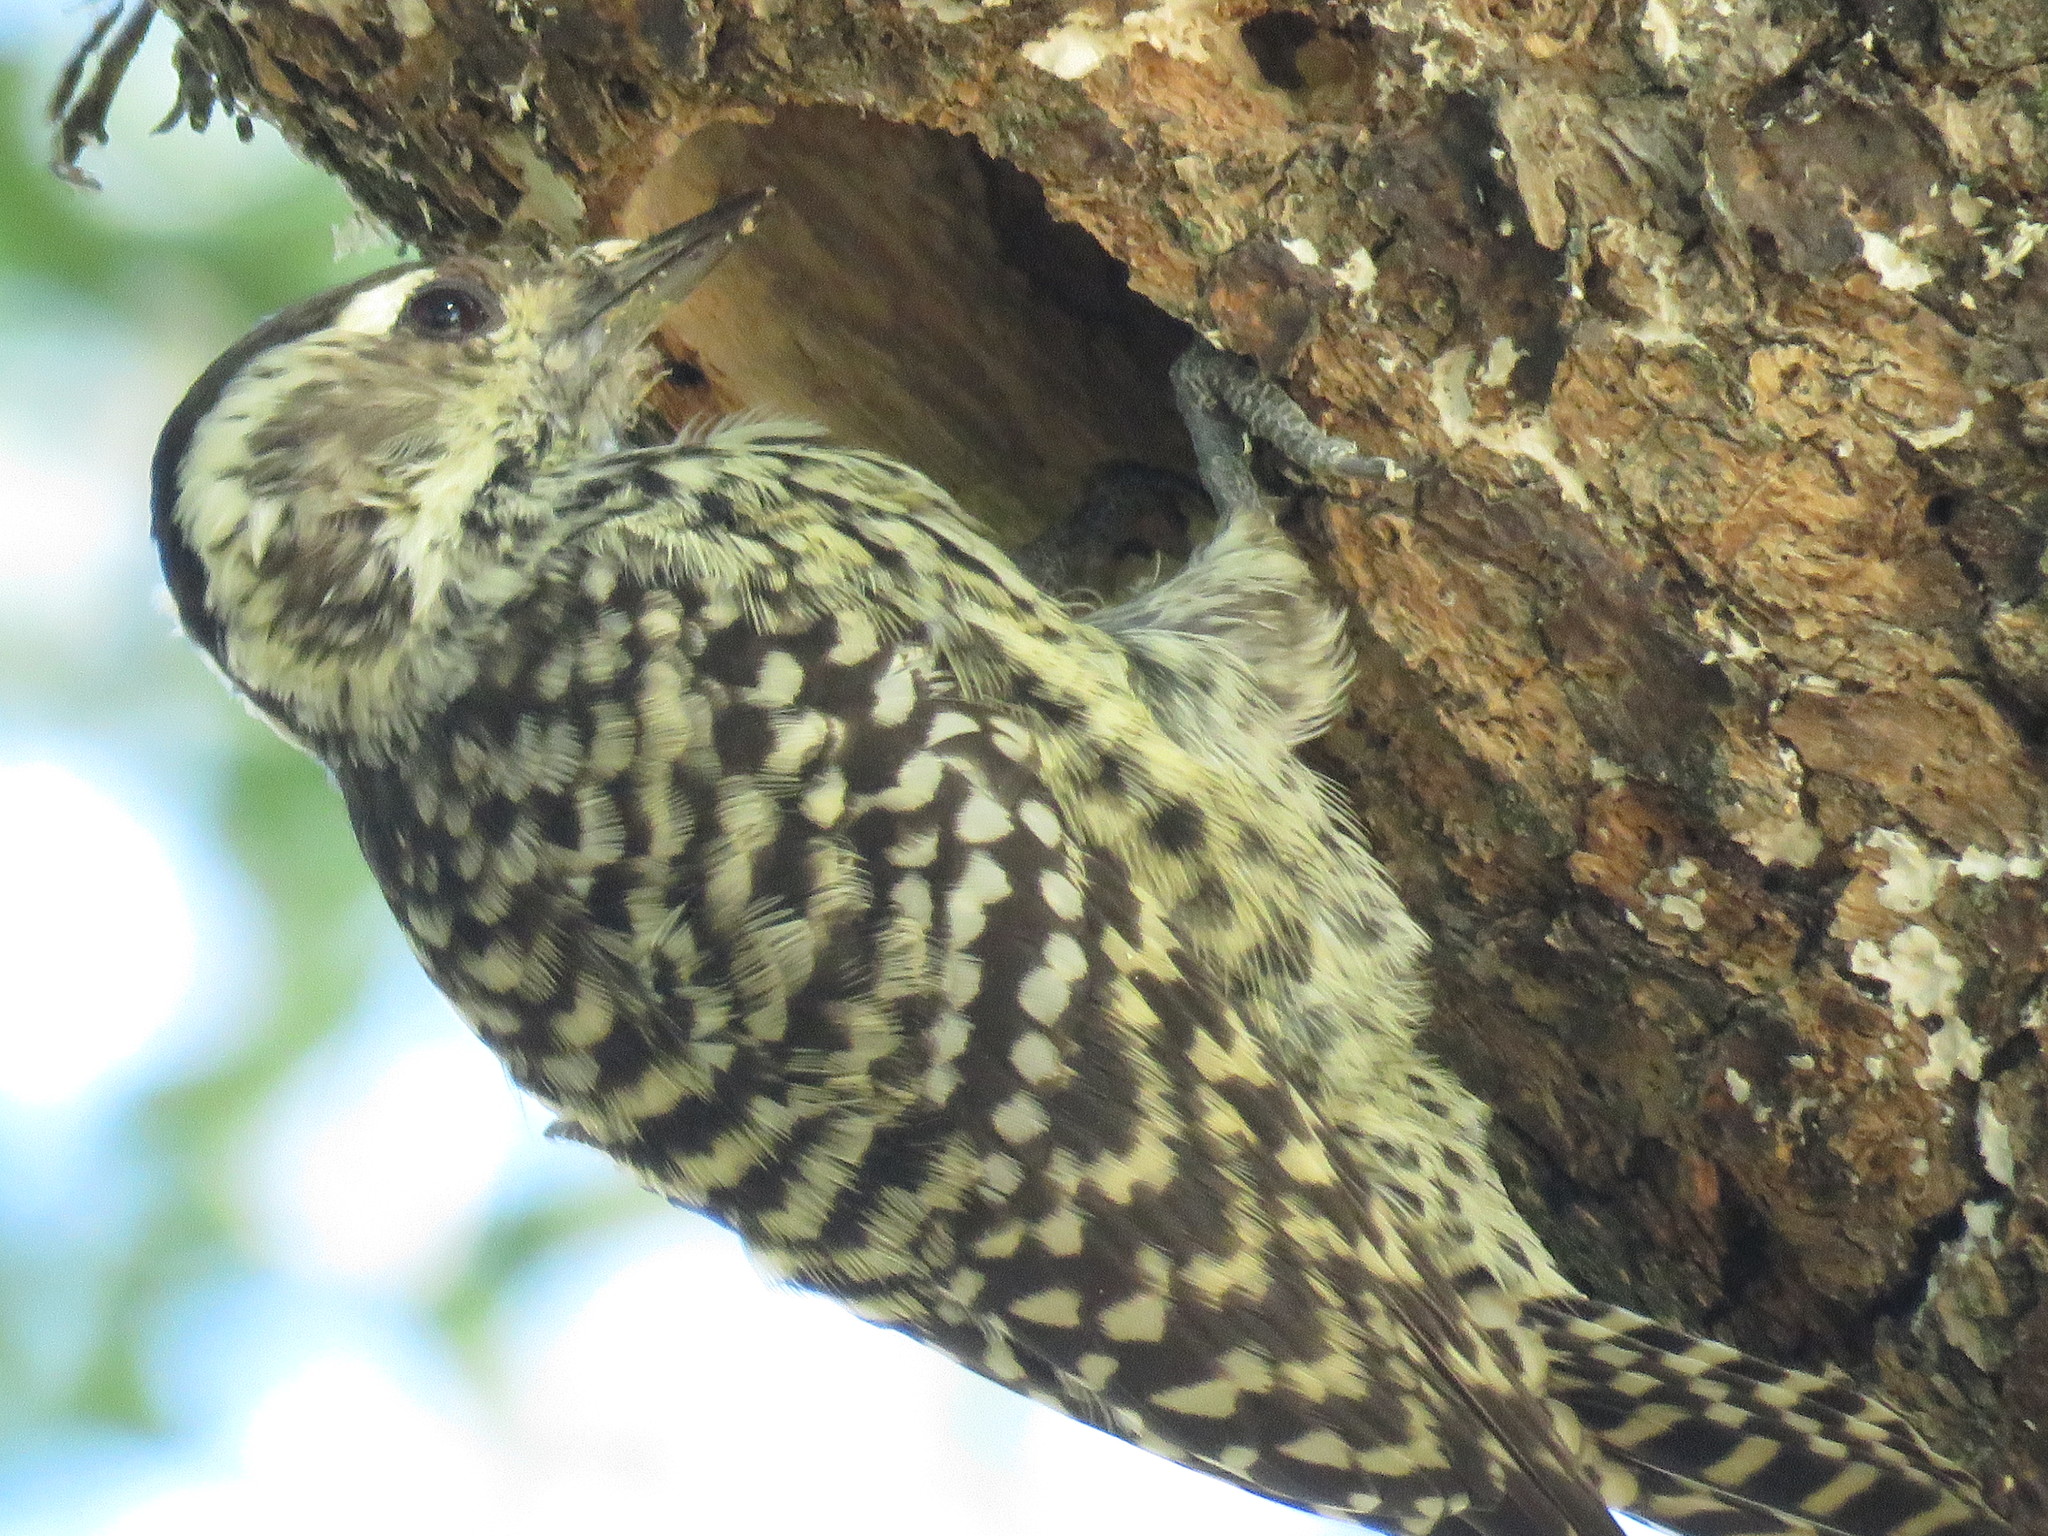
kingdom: Animalia
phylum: Chordata
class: Aves
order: Piciformes
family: Picidae
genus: Veniliornis
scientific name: Veniliornis mixtus
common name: Checkered woodpecker
